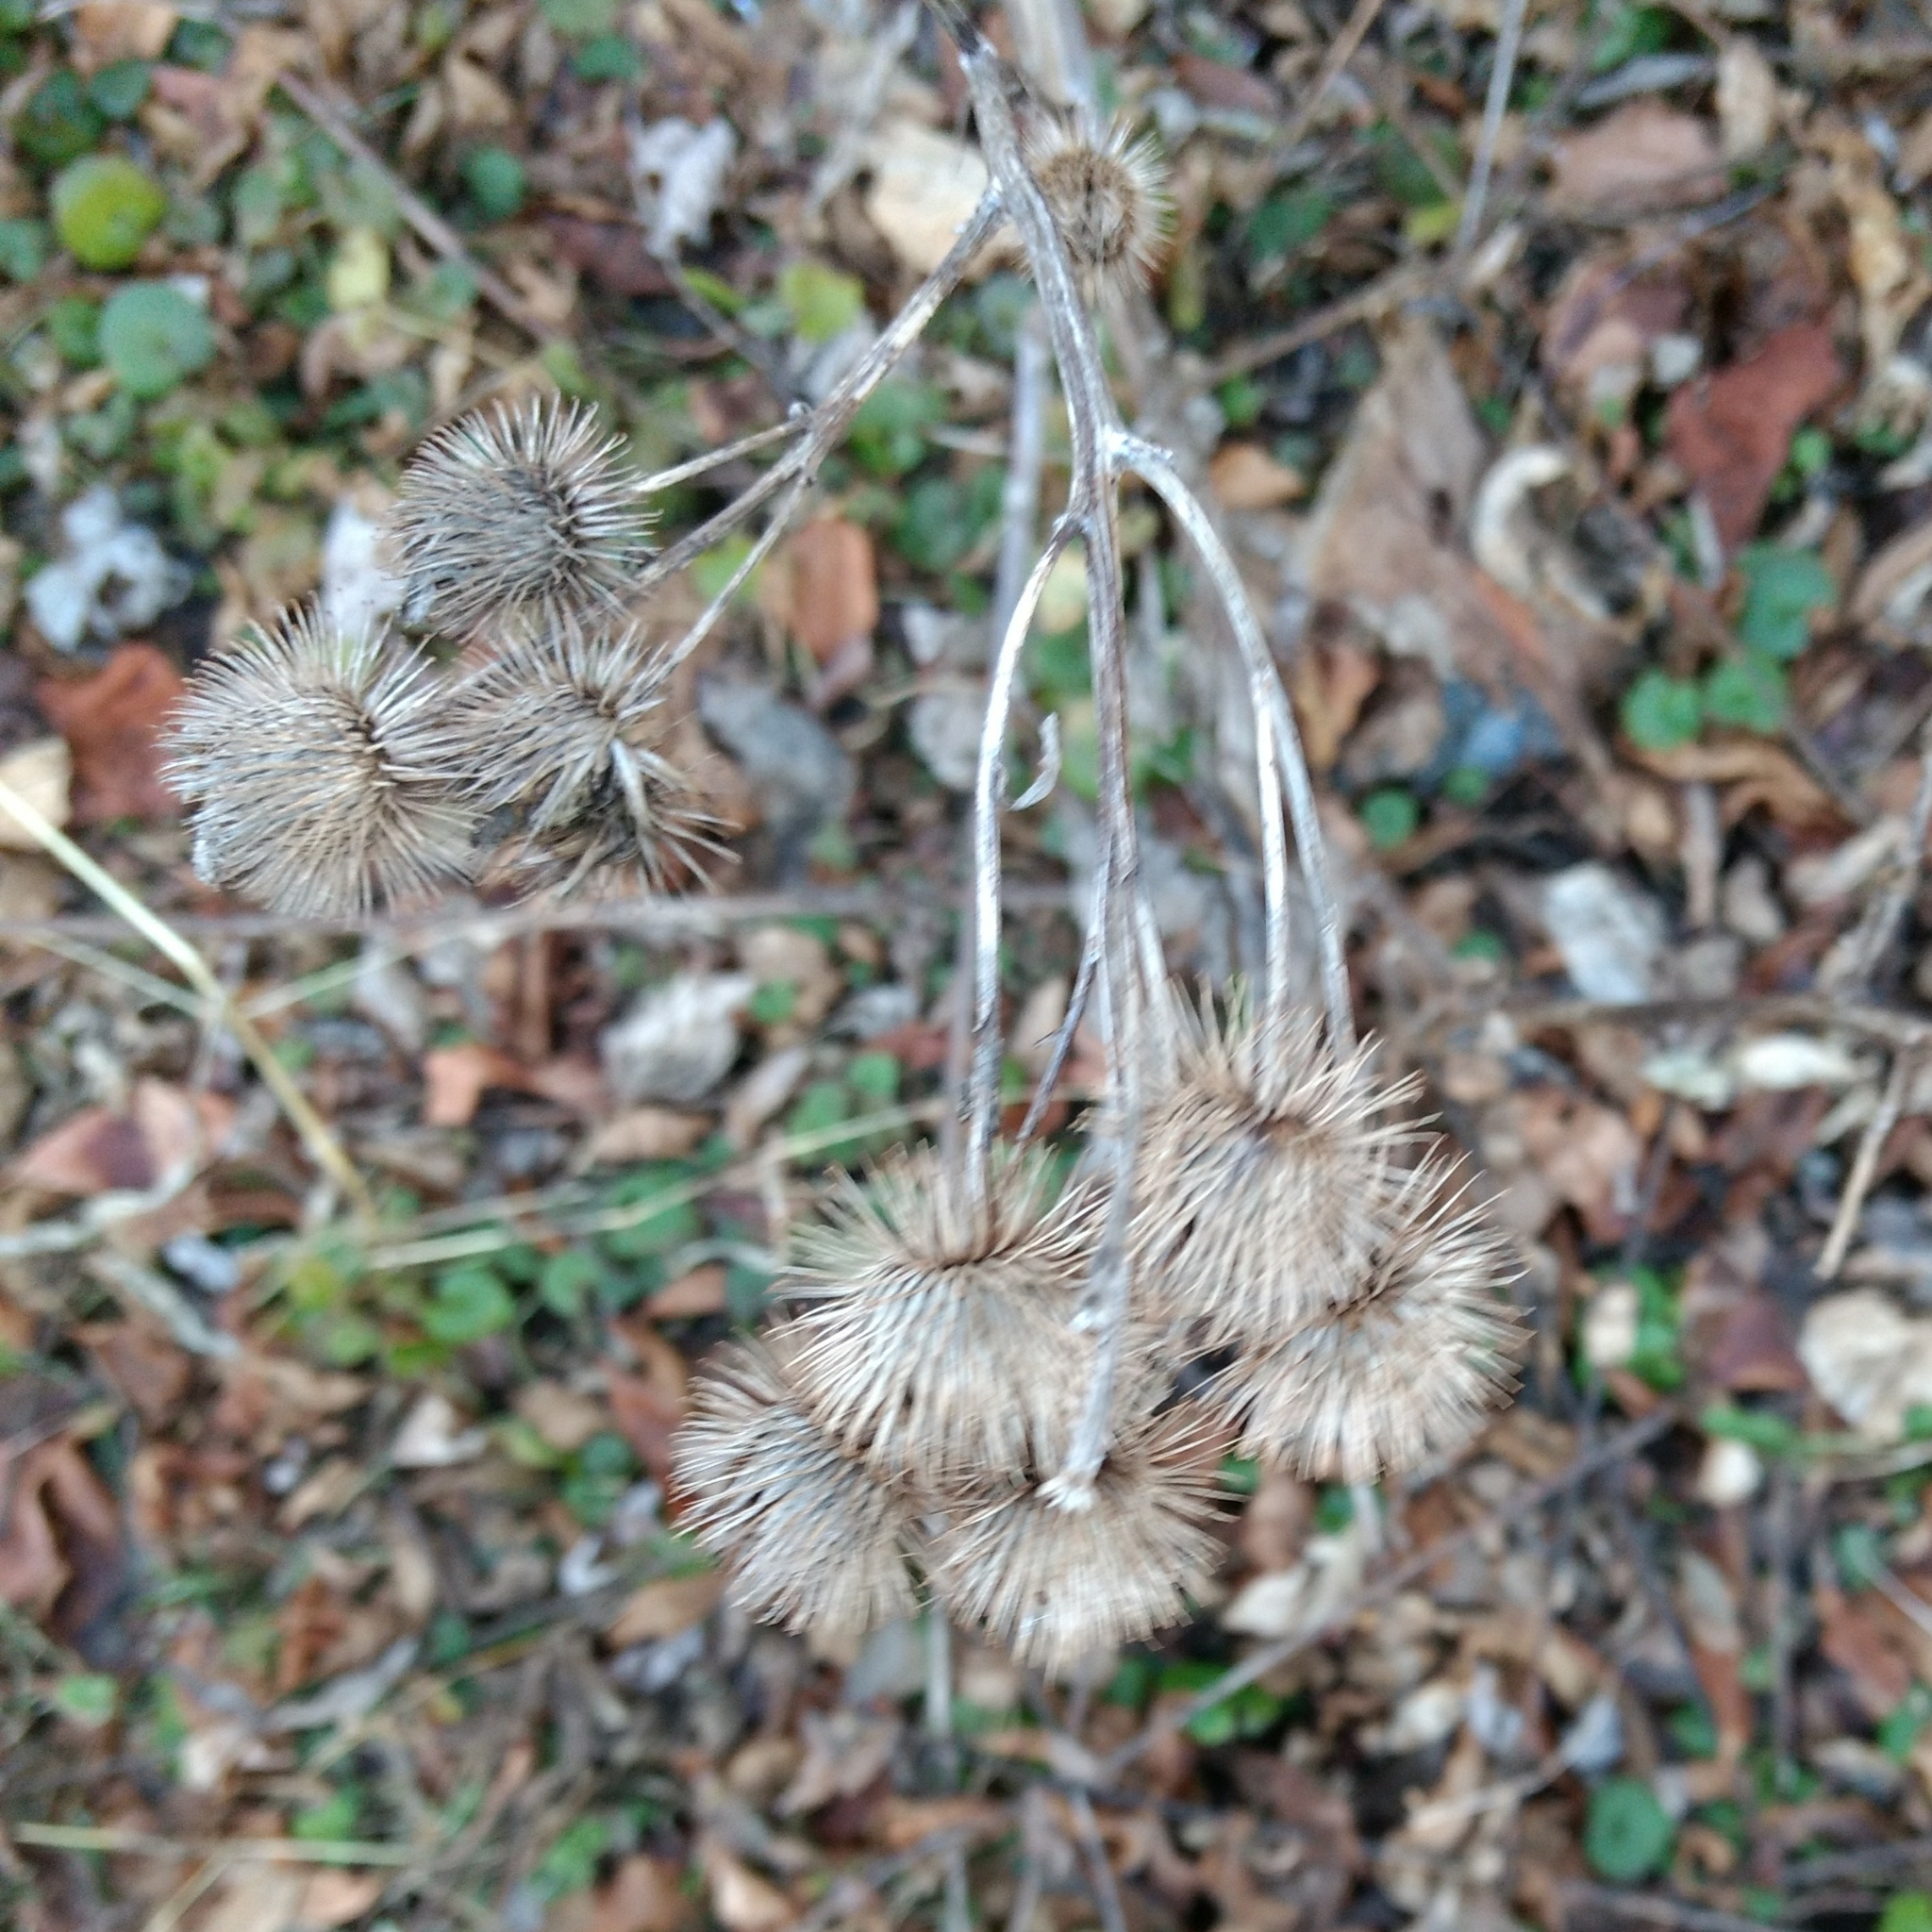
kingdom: Plantae
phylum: Tracheophyta
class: Magnoliopsida
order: Asterales
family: Asteraceae
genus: Arctium
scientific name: Arctium lappa
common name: Greater burdock
